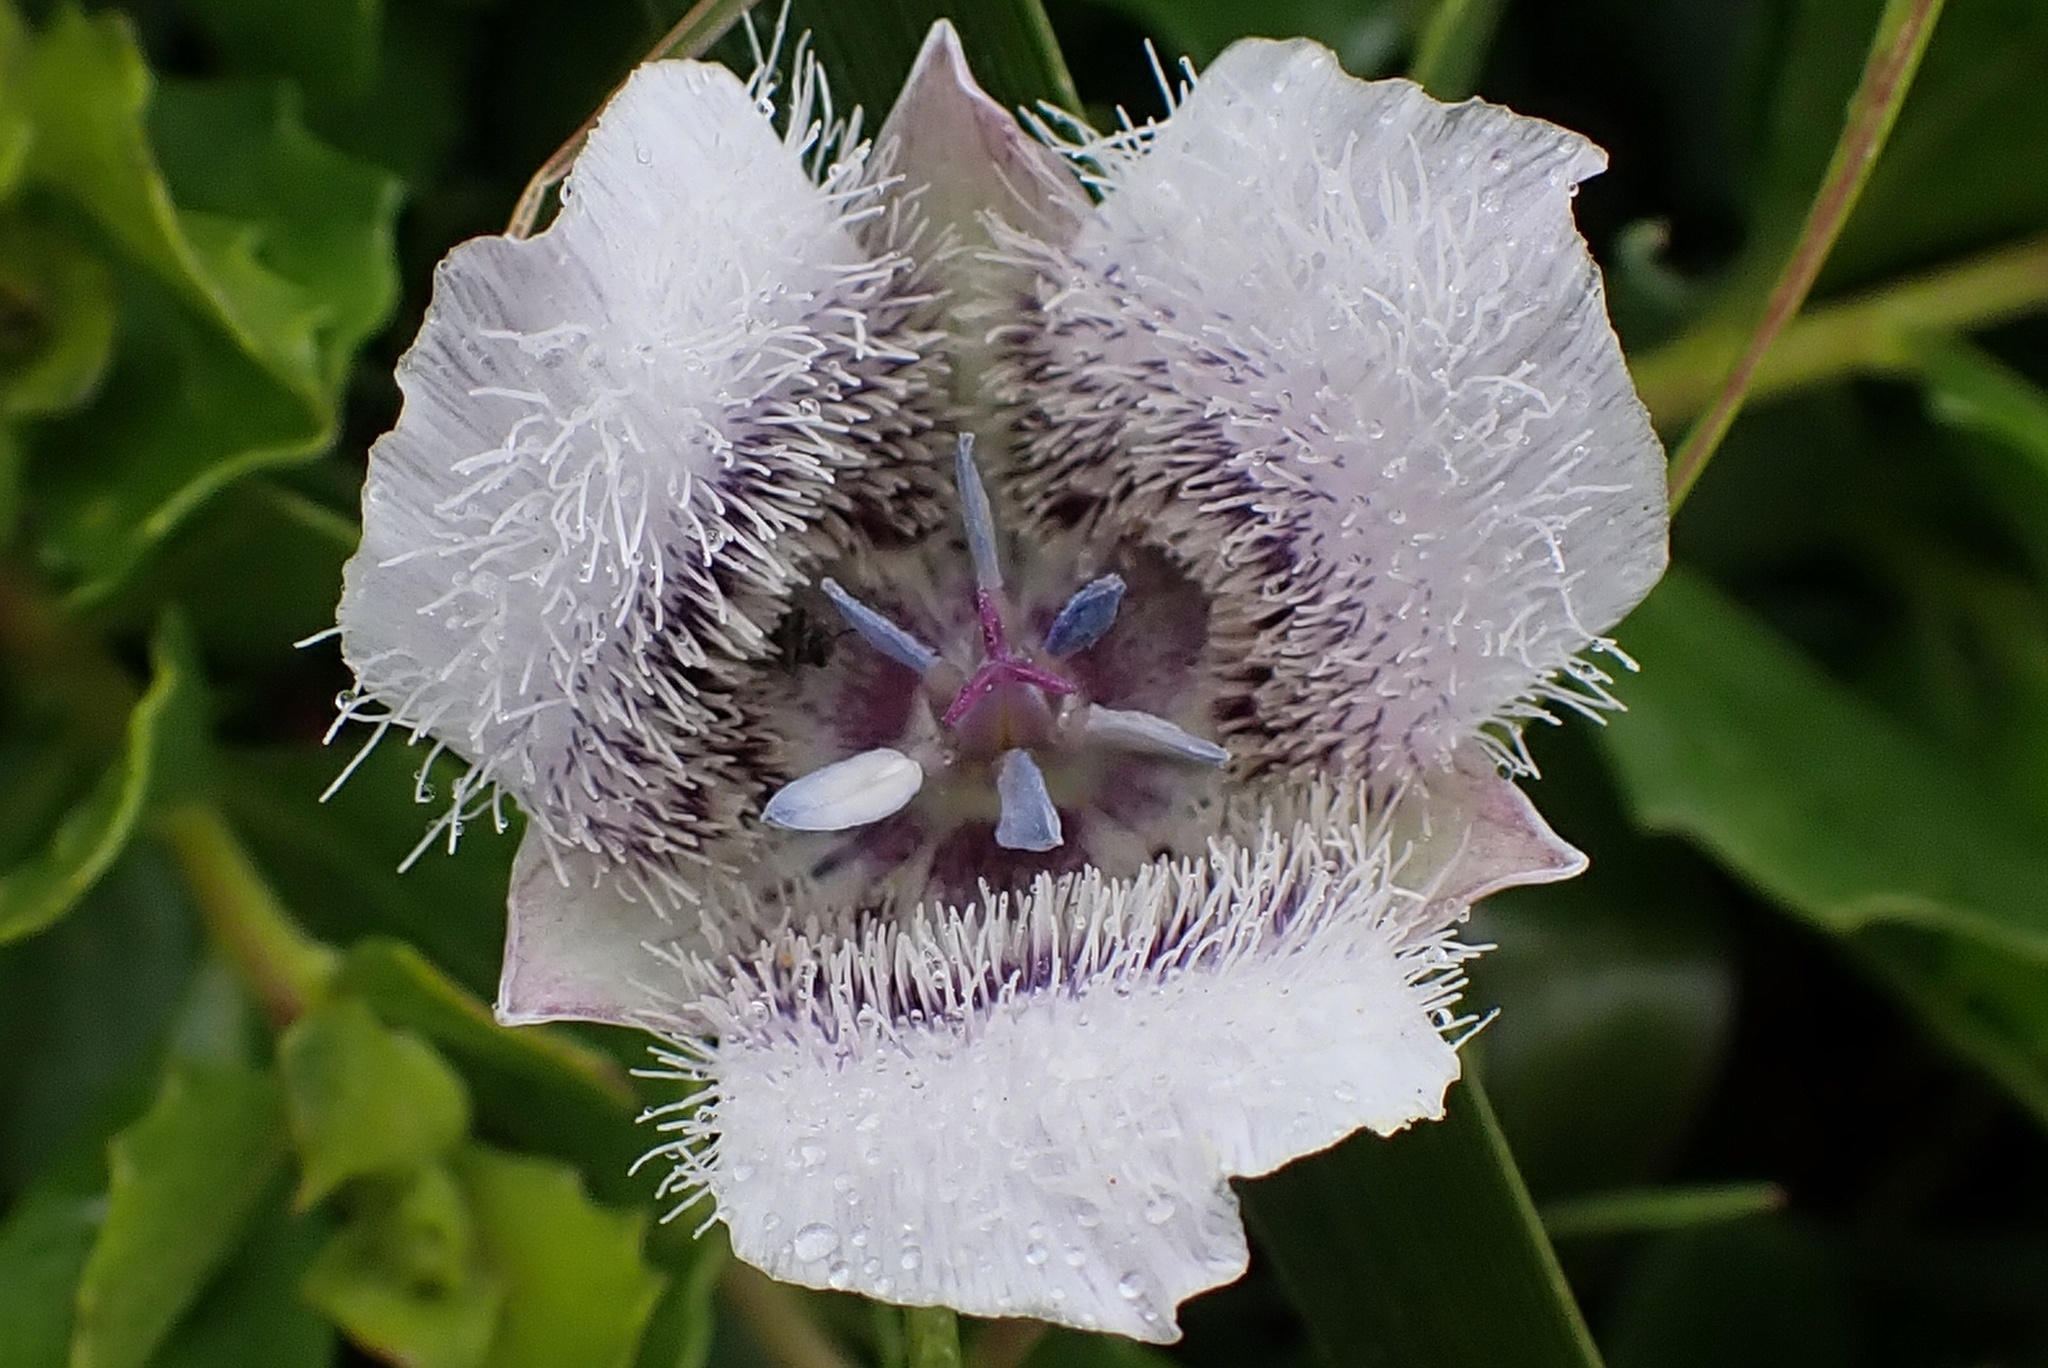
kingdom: Plantae
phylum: Tracheophyta
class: Liliopsida
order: Liliales
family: Liliaceae
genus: Calochortus
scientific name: Calochortus tolmiei
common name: Pussy-ears
